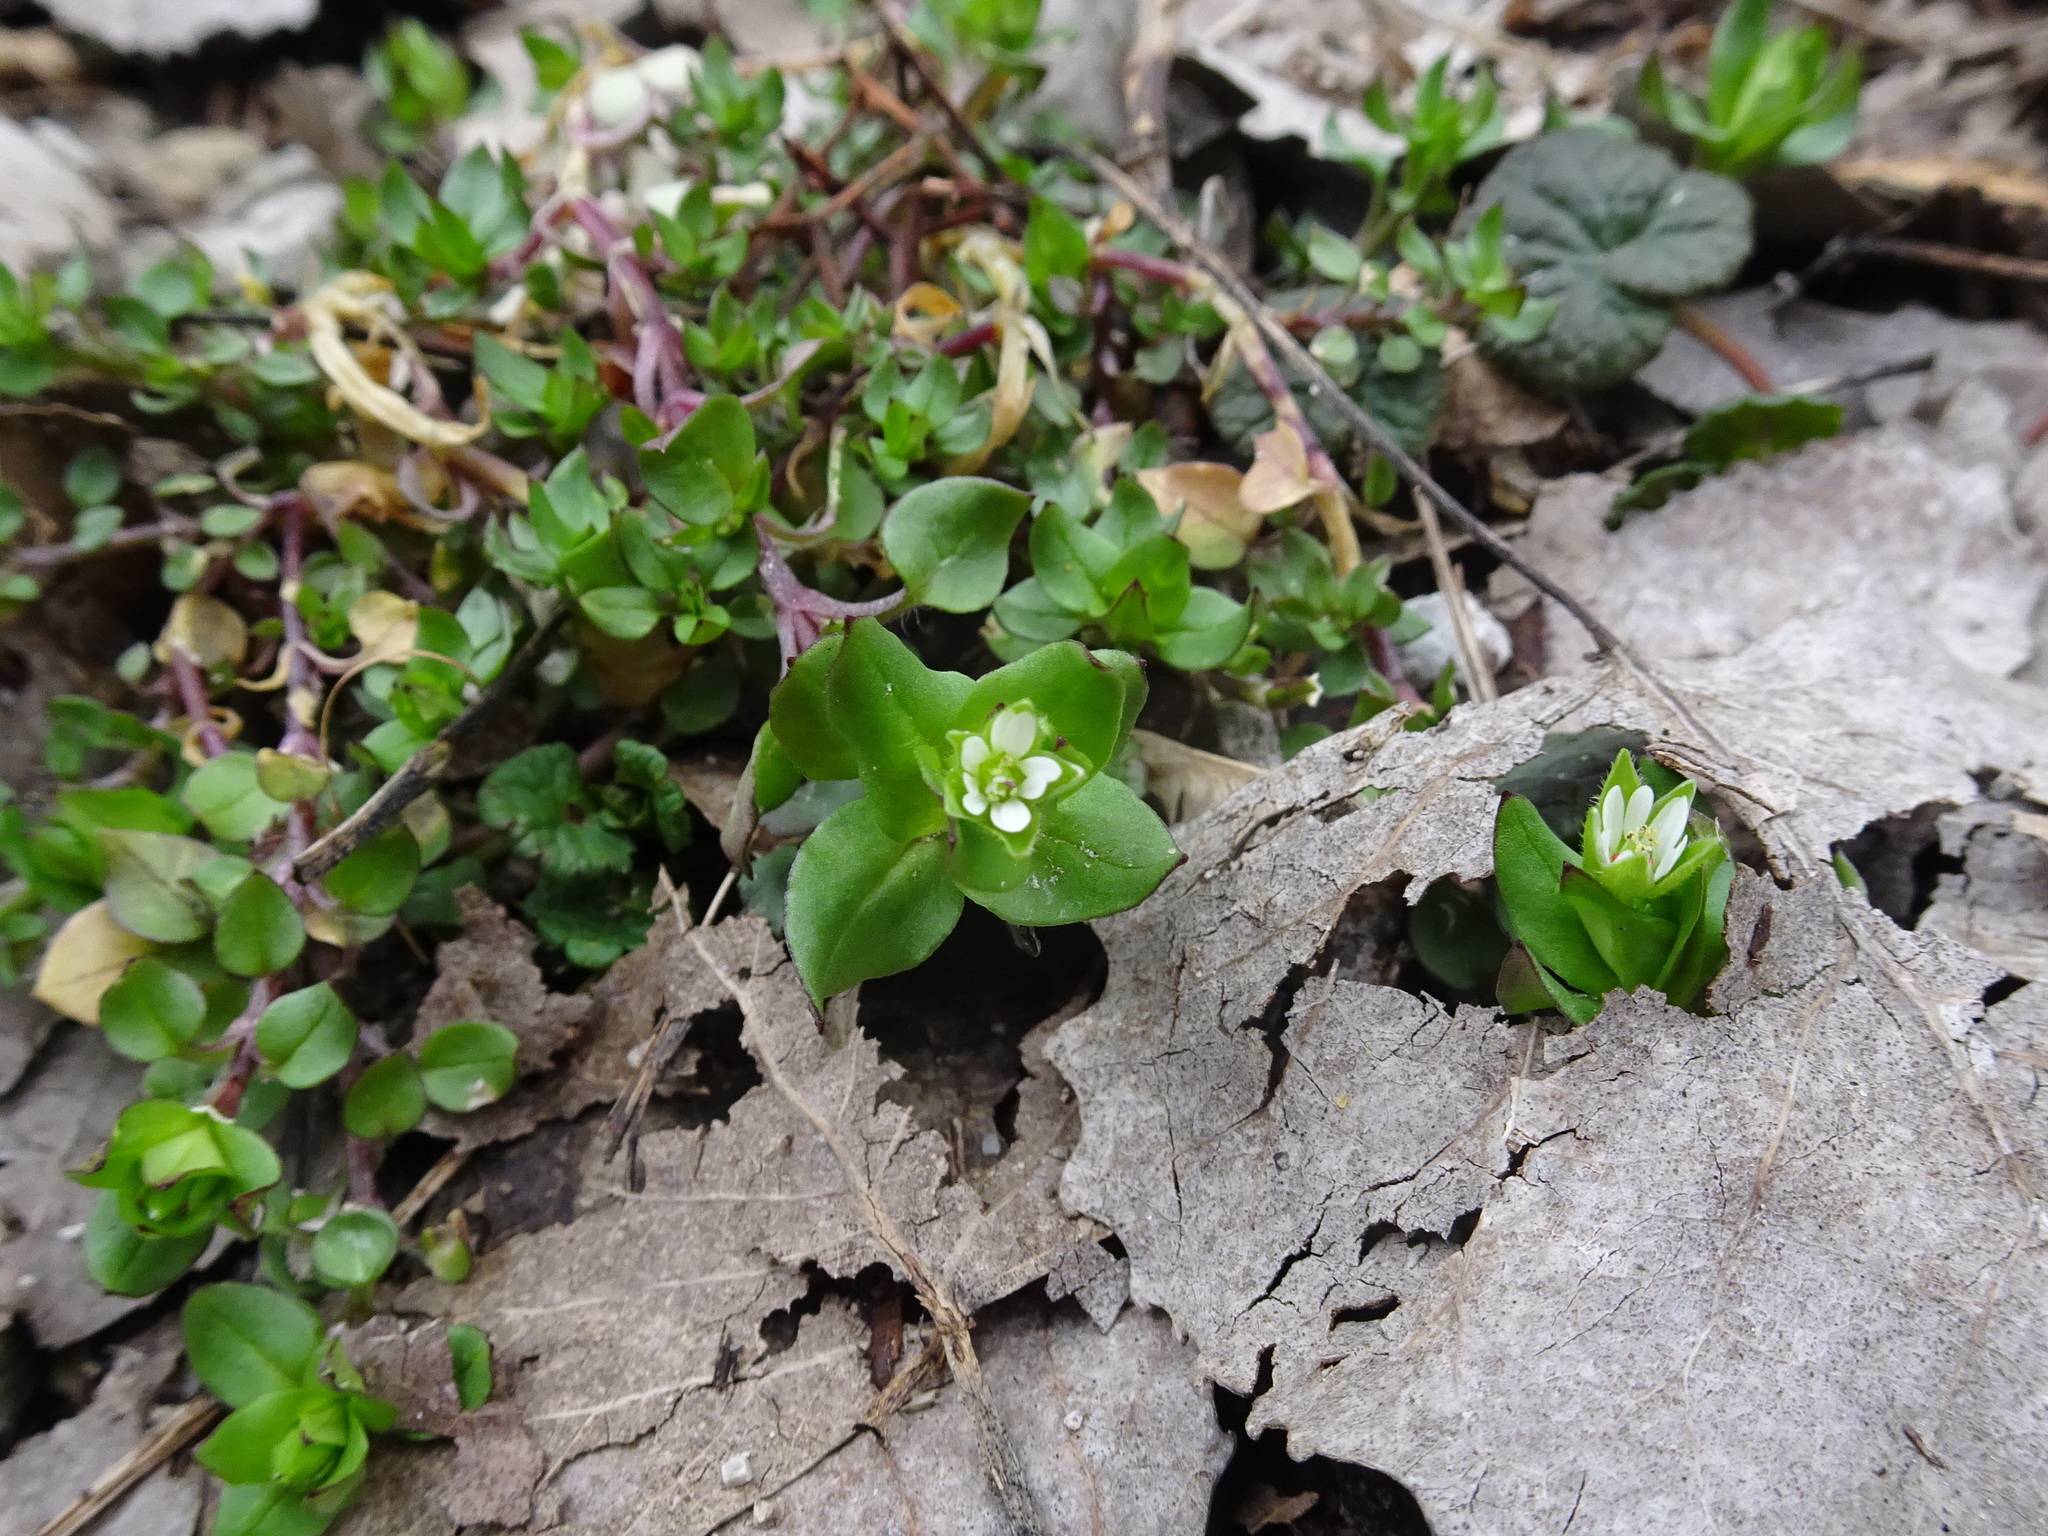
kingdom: Plantae
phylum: Tracheophyta
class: Magnoliopsida
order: Caryophyllales
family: Caryophyllaceae
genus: Stellaria
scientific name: Stellaria media
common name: Common chickweed
